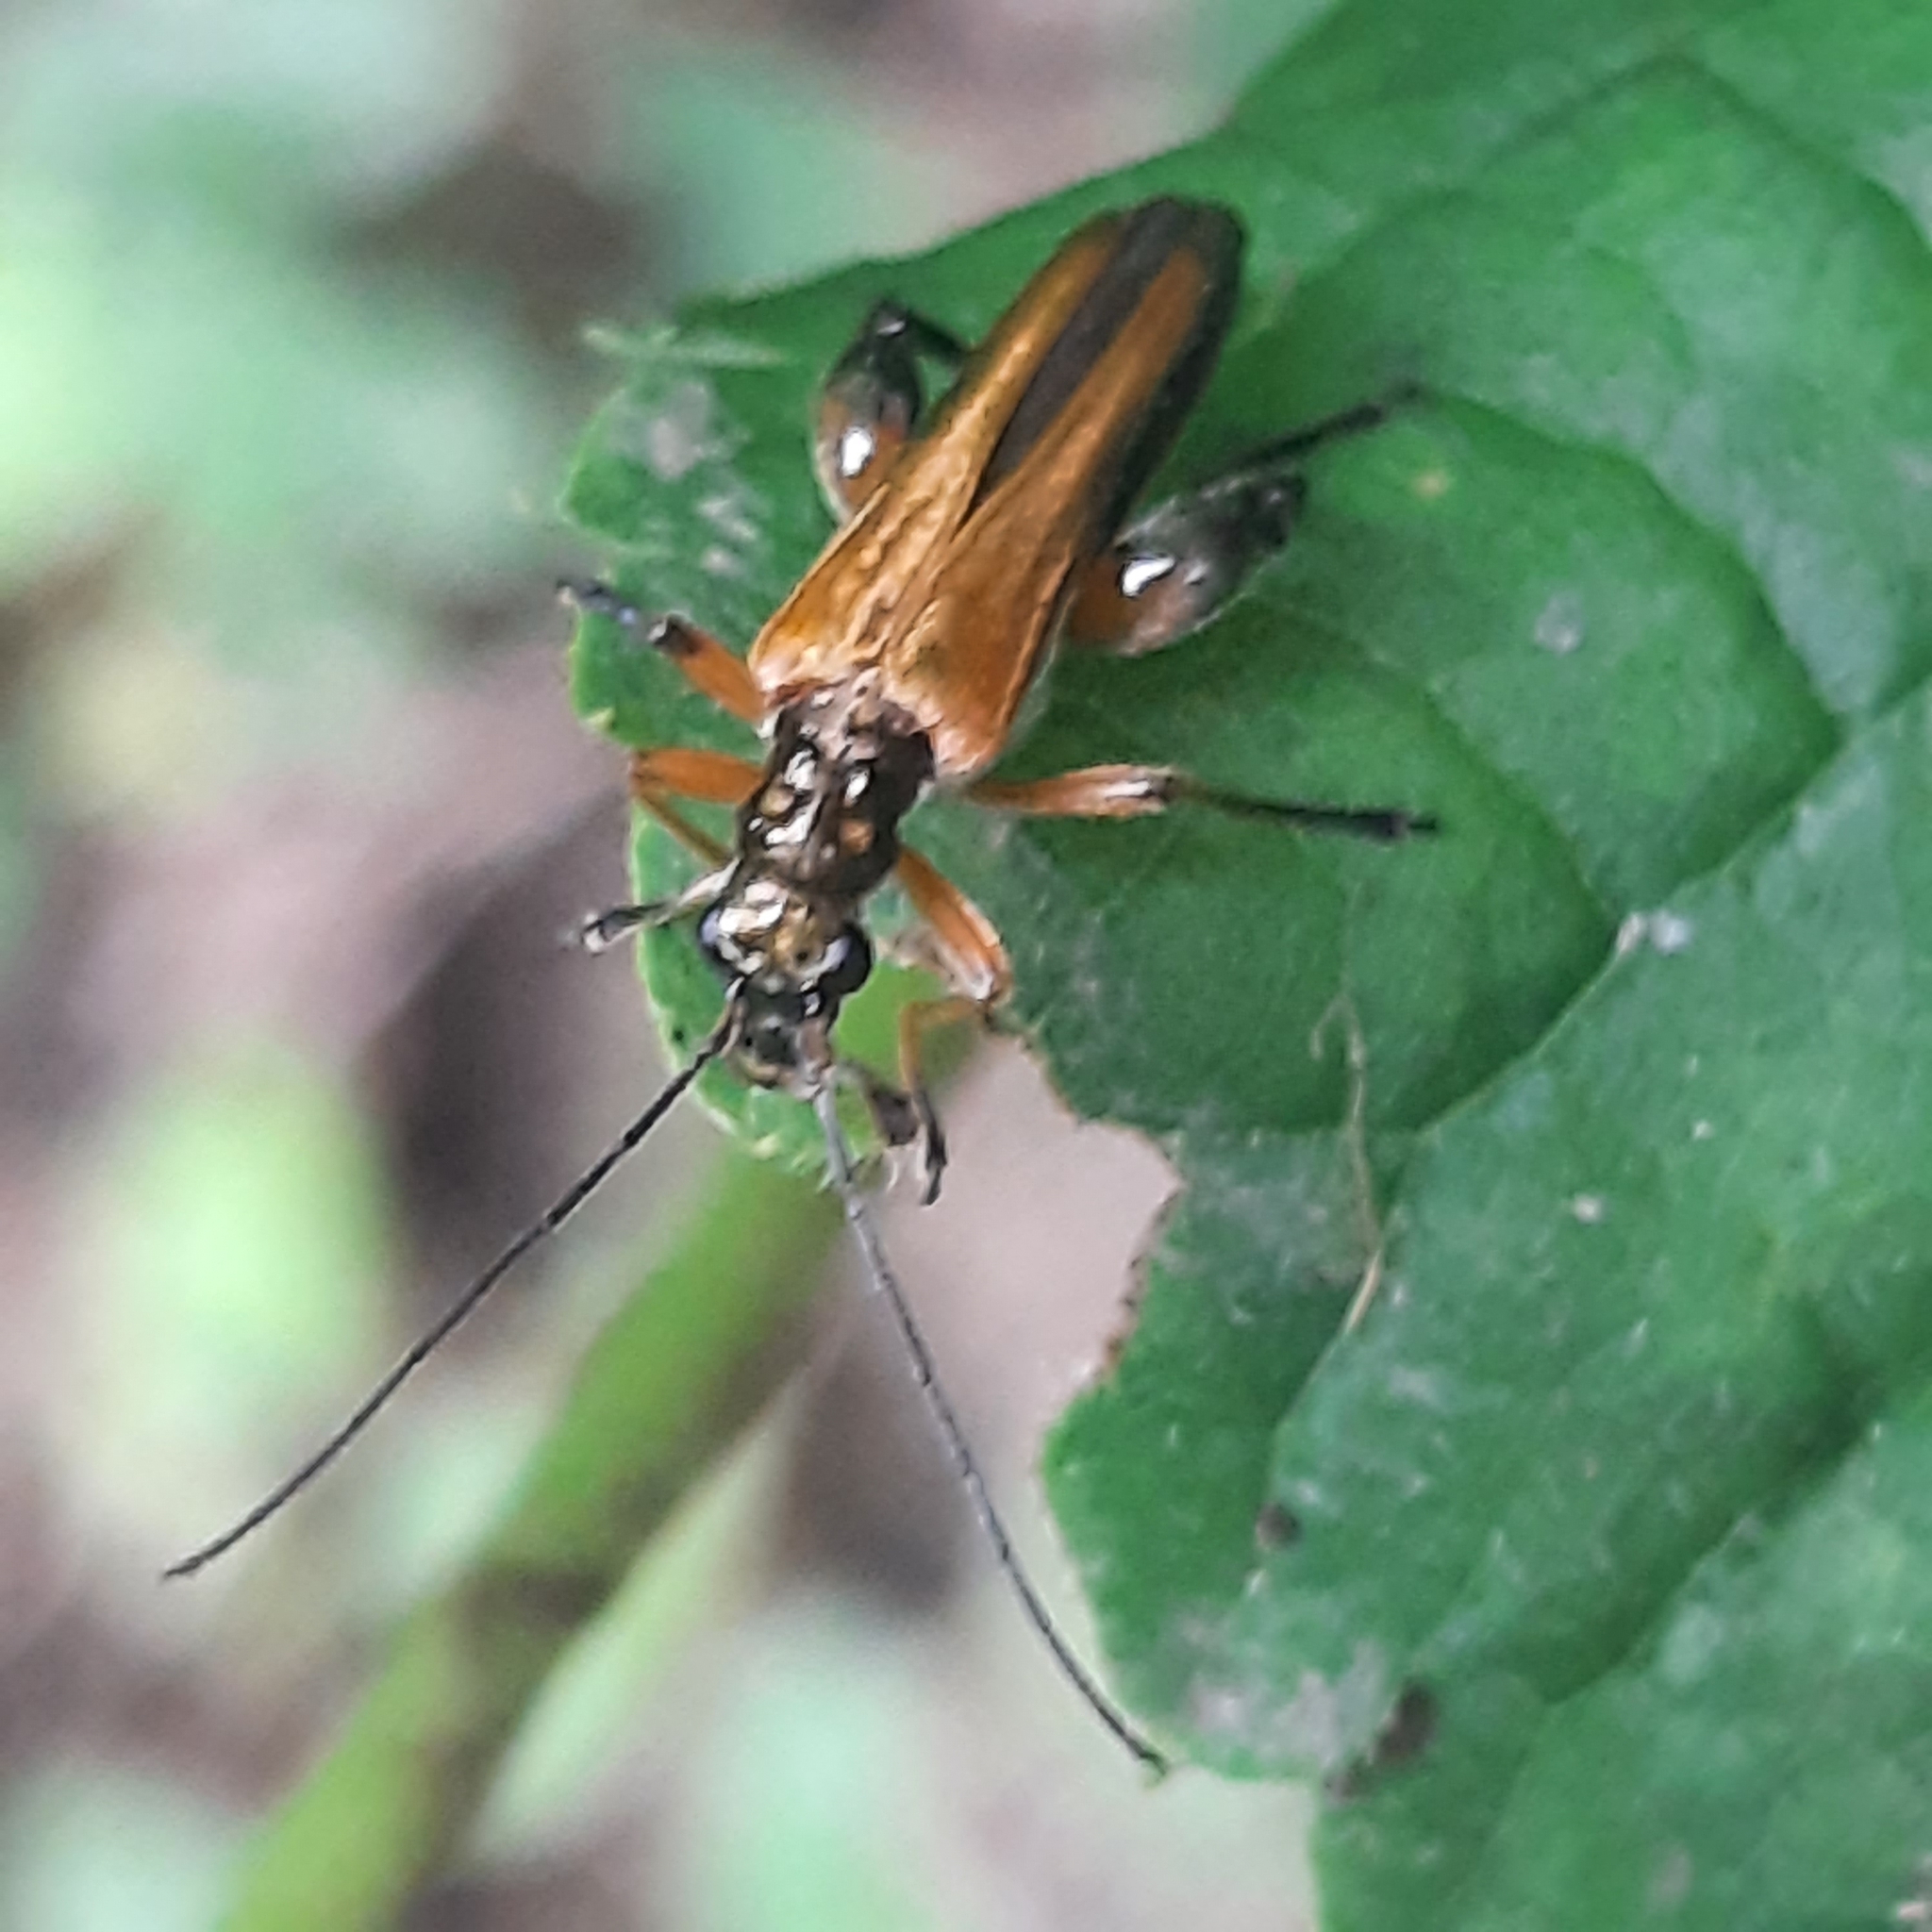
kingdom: Animalia
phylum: Arthropoda
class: Insecta
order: Coleoptera
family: Oedemeridae
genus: Oedemera
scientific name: Oedemera podagrariae
